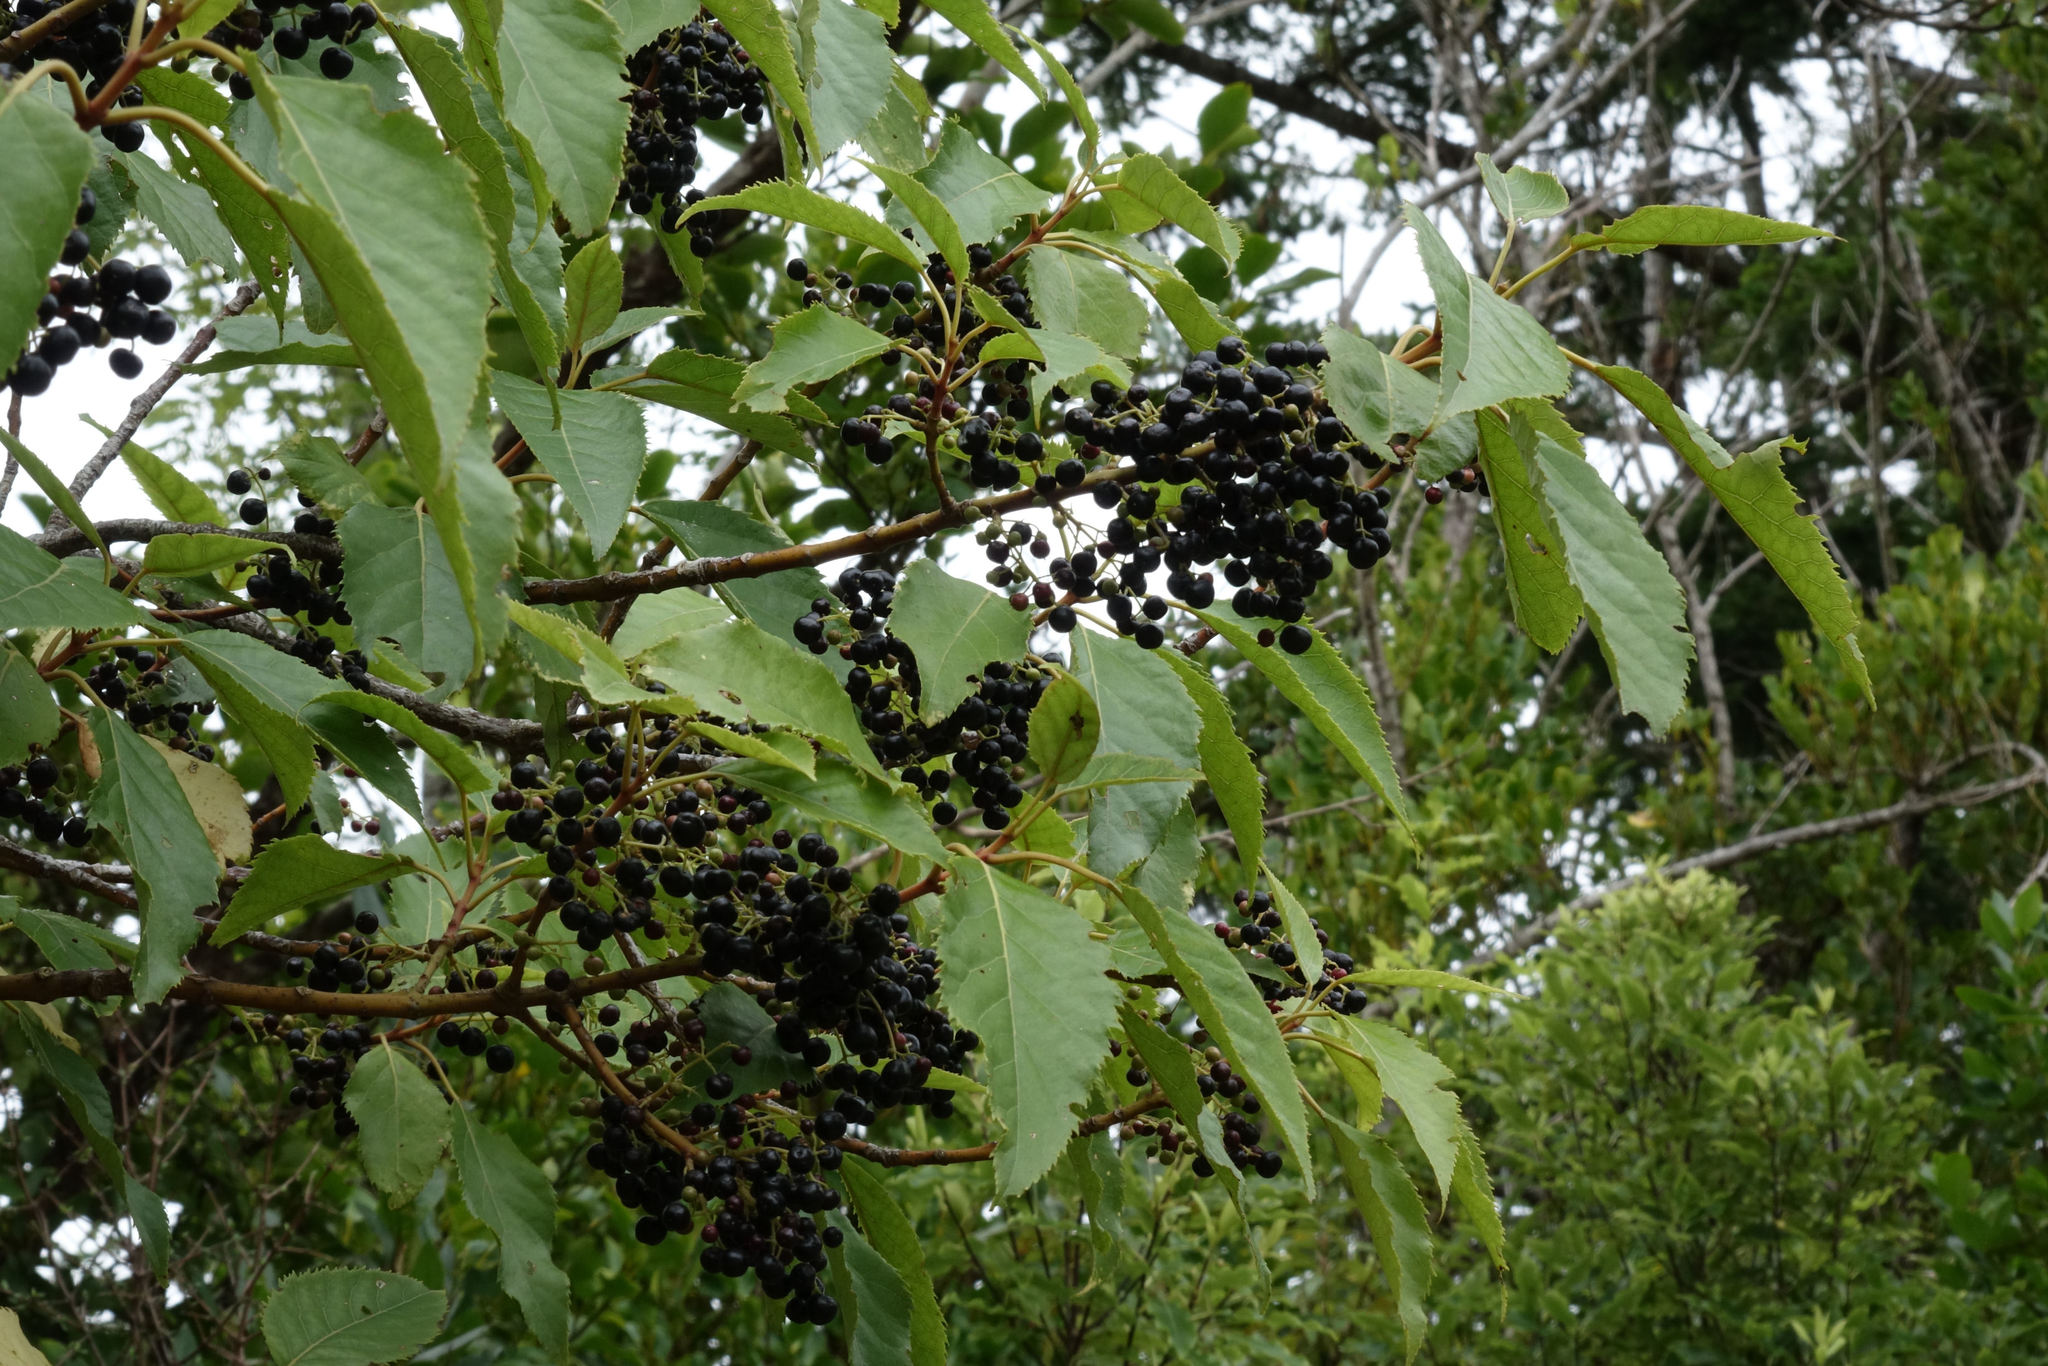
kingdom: Plantae
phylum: Tracheophyta
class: Magnoliopsida
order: Oxalidales
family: Elaeocarpaceae
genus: Aristotelia
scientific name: Aristotelia serrata
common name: New zealand wineberry
